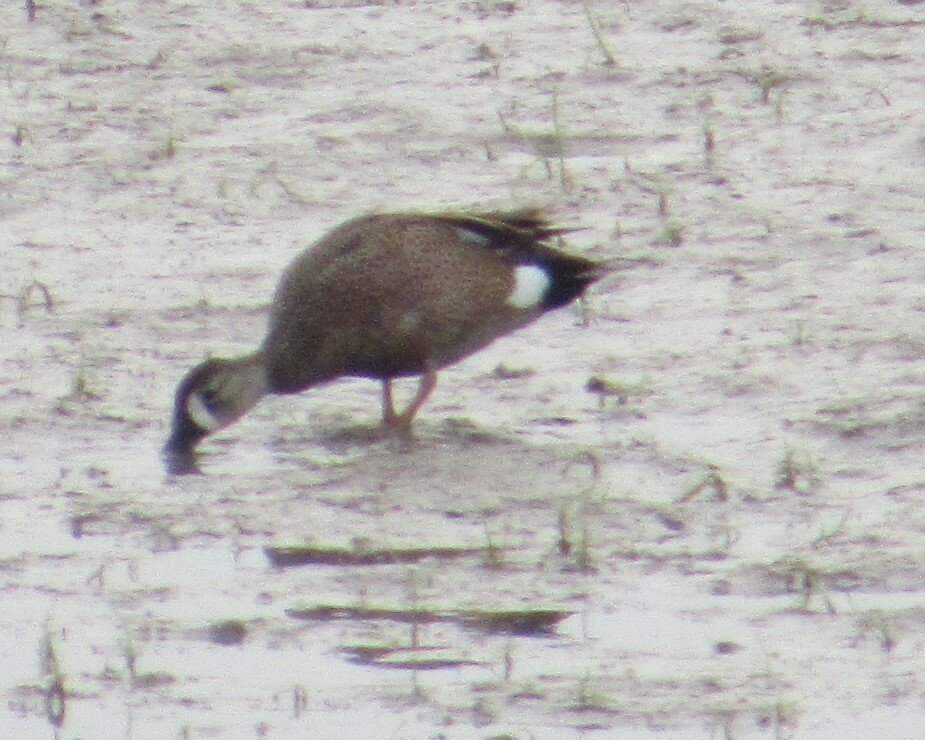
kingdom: Animalia
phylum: Chordata
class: Aves
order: Anseriformes
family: Anatidae
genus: Spatula
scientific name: Spatula discors
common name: Blue-winged teal
